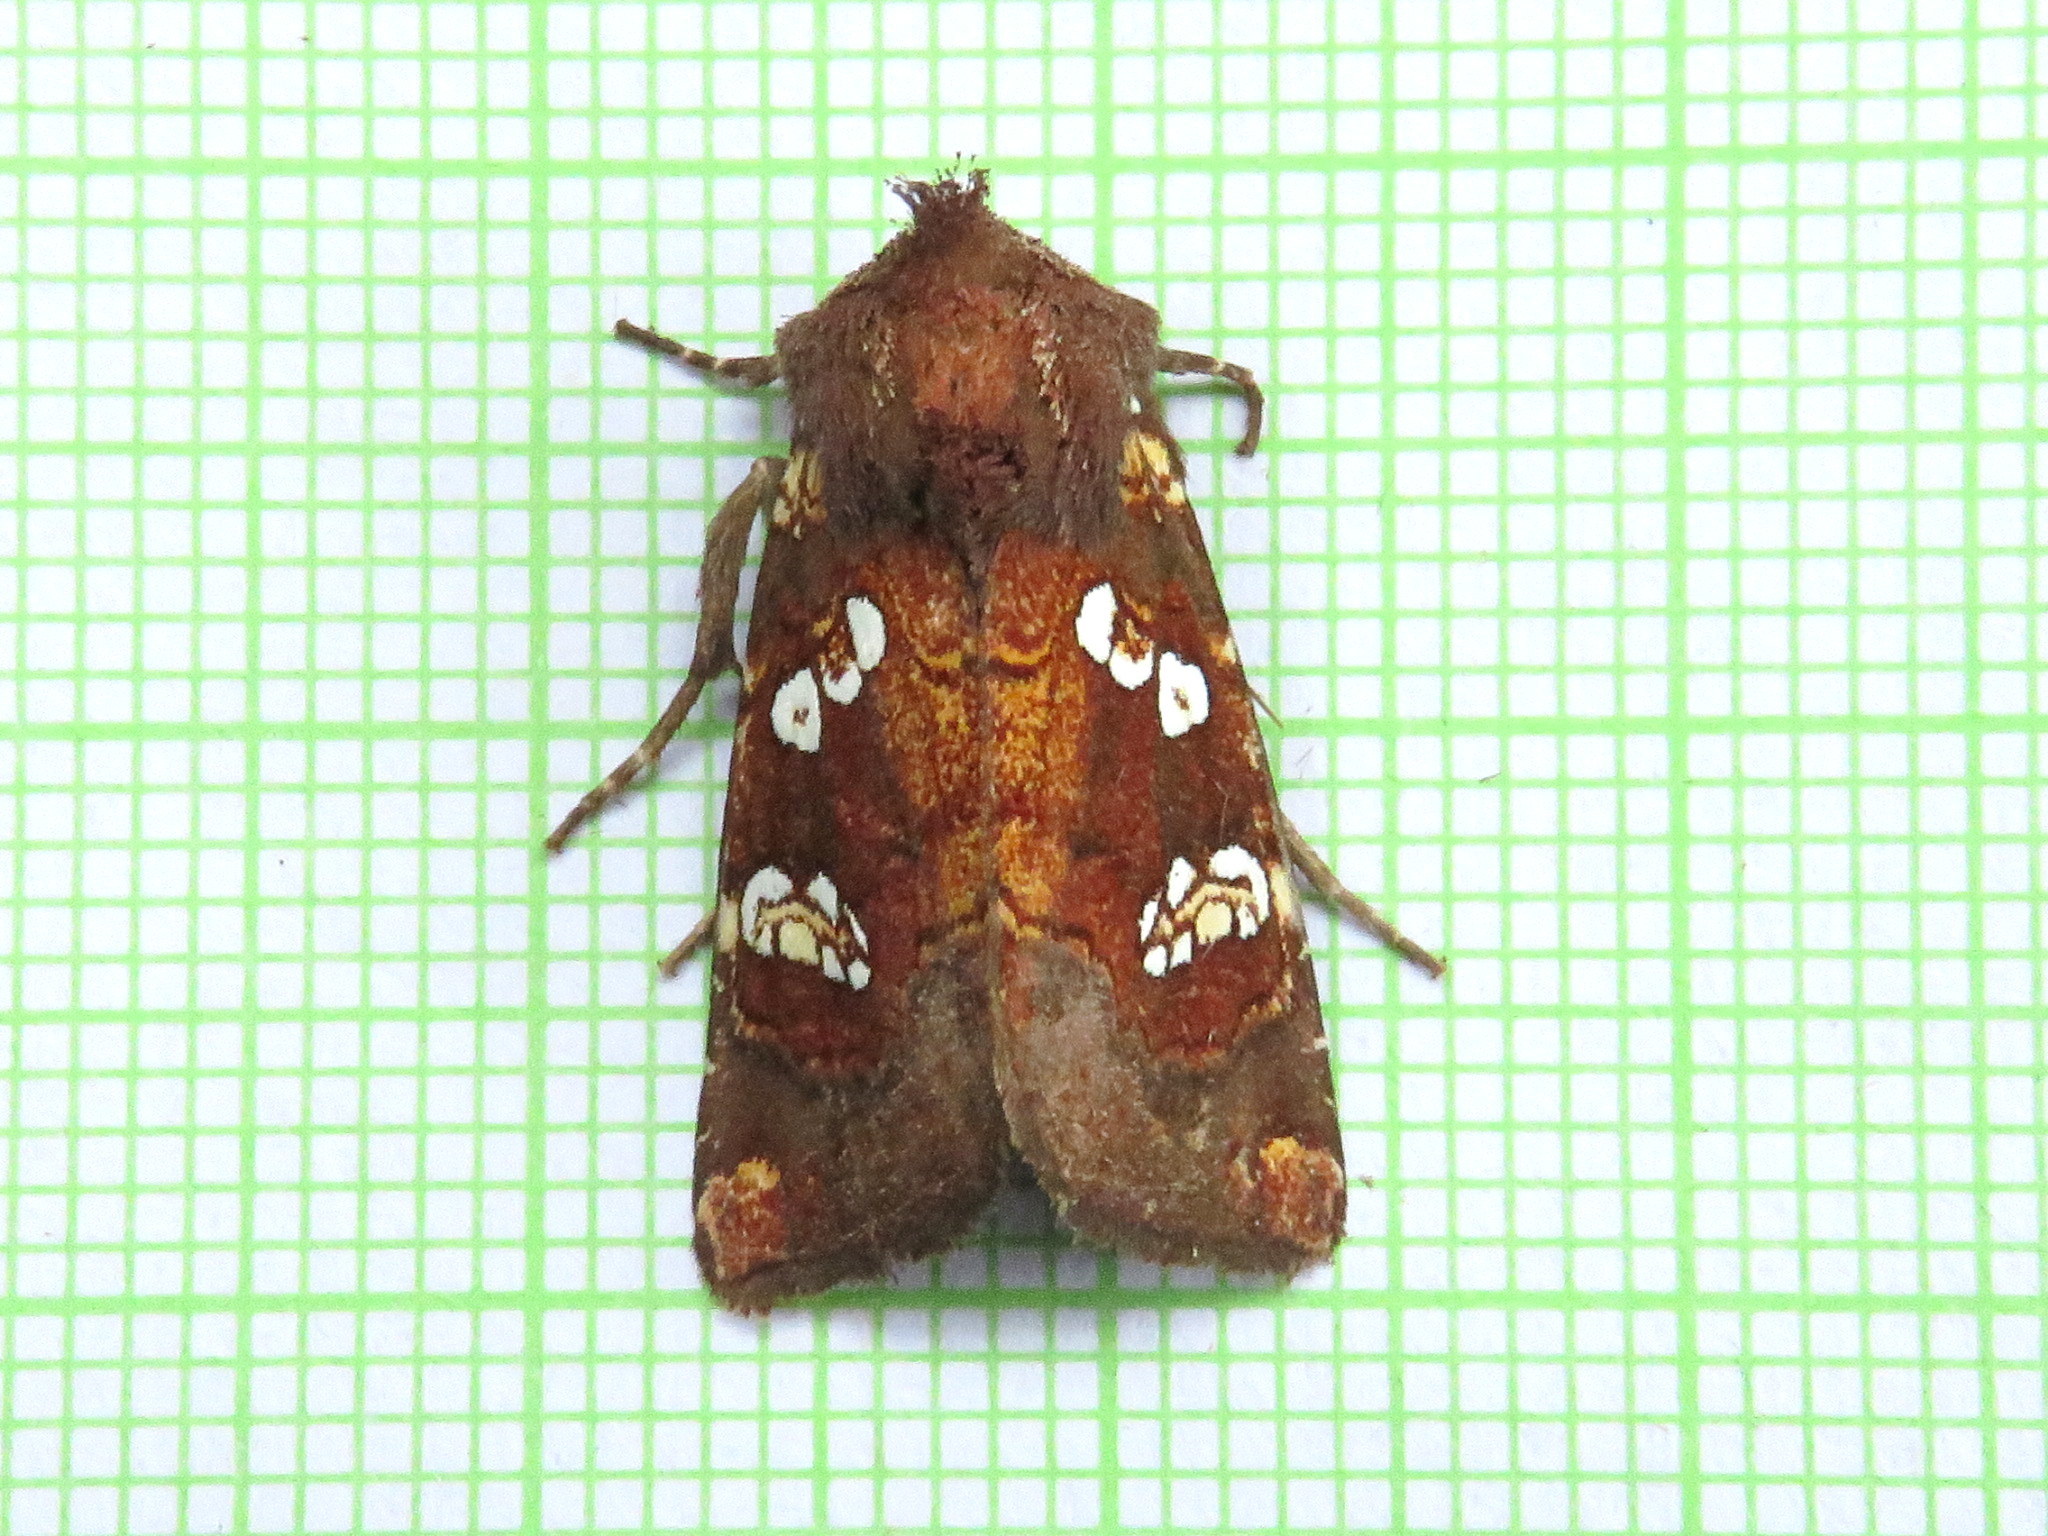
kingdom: Animalia
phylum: Arthropoda
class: Insecta
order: Lepidoptera
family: Noctuidae
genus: Papaipema
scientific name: Papaipema nepheleptena
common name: Turtle head borer moth
